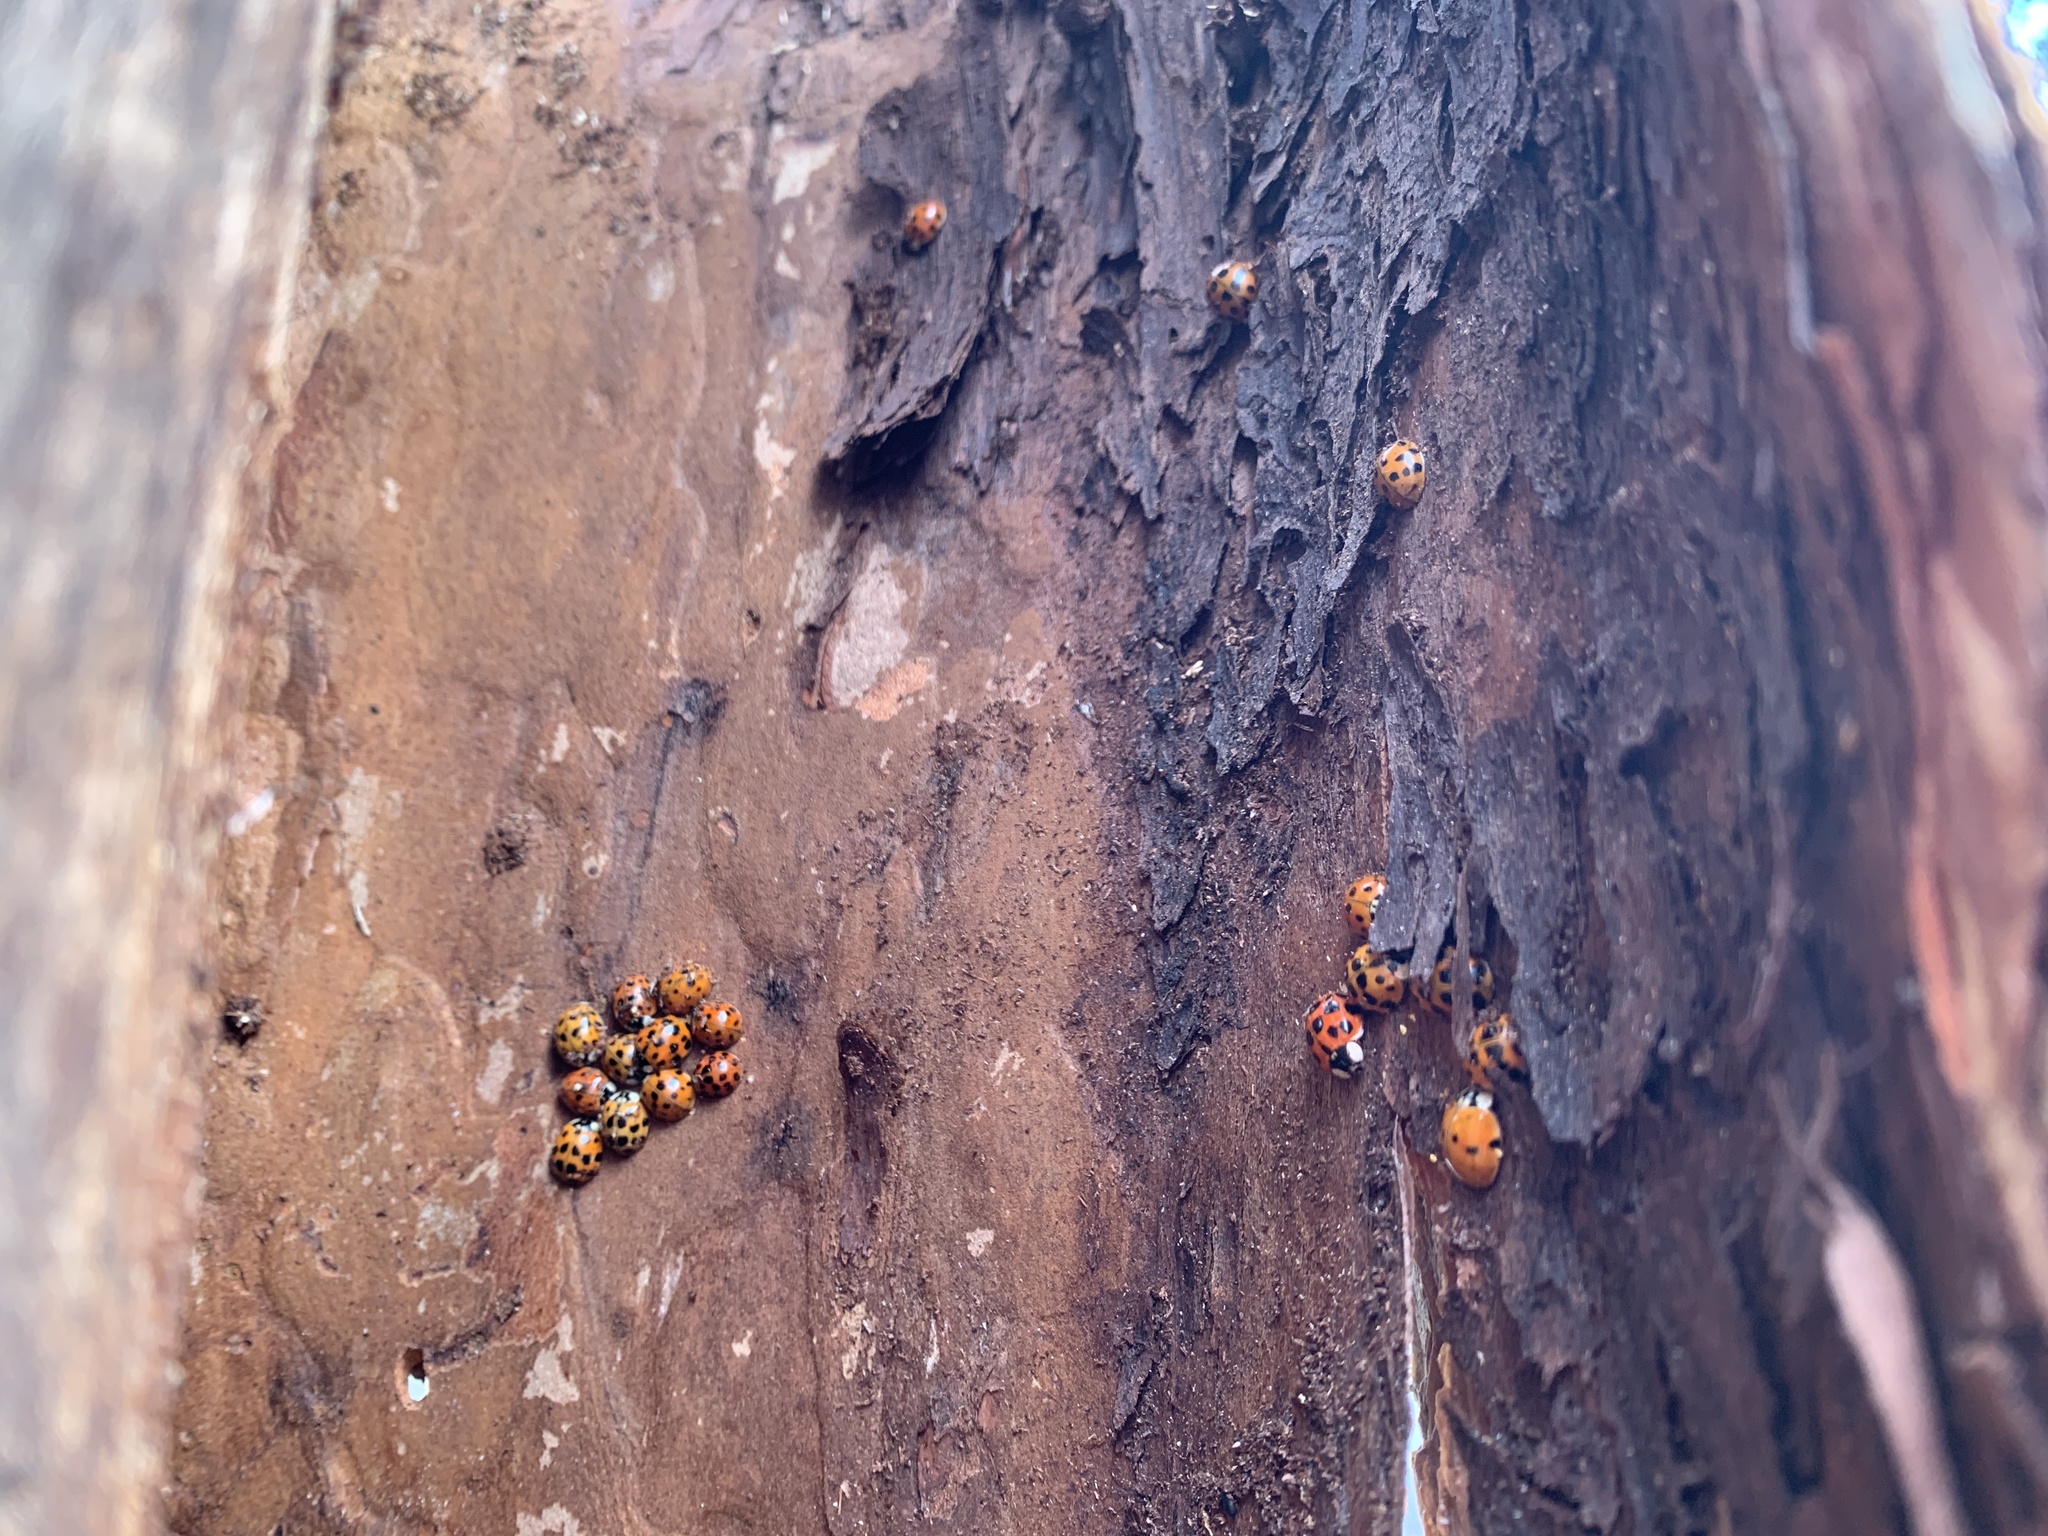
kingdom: Animalia
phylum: Arthropoda
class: Insecta
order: Coleoptera
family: Coccinellidae
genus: Harmonia
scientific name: Harmonia axyridis
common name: Harlequin ladybird
